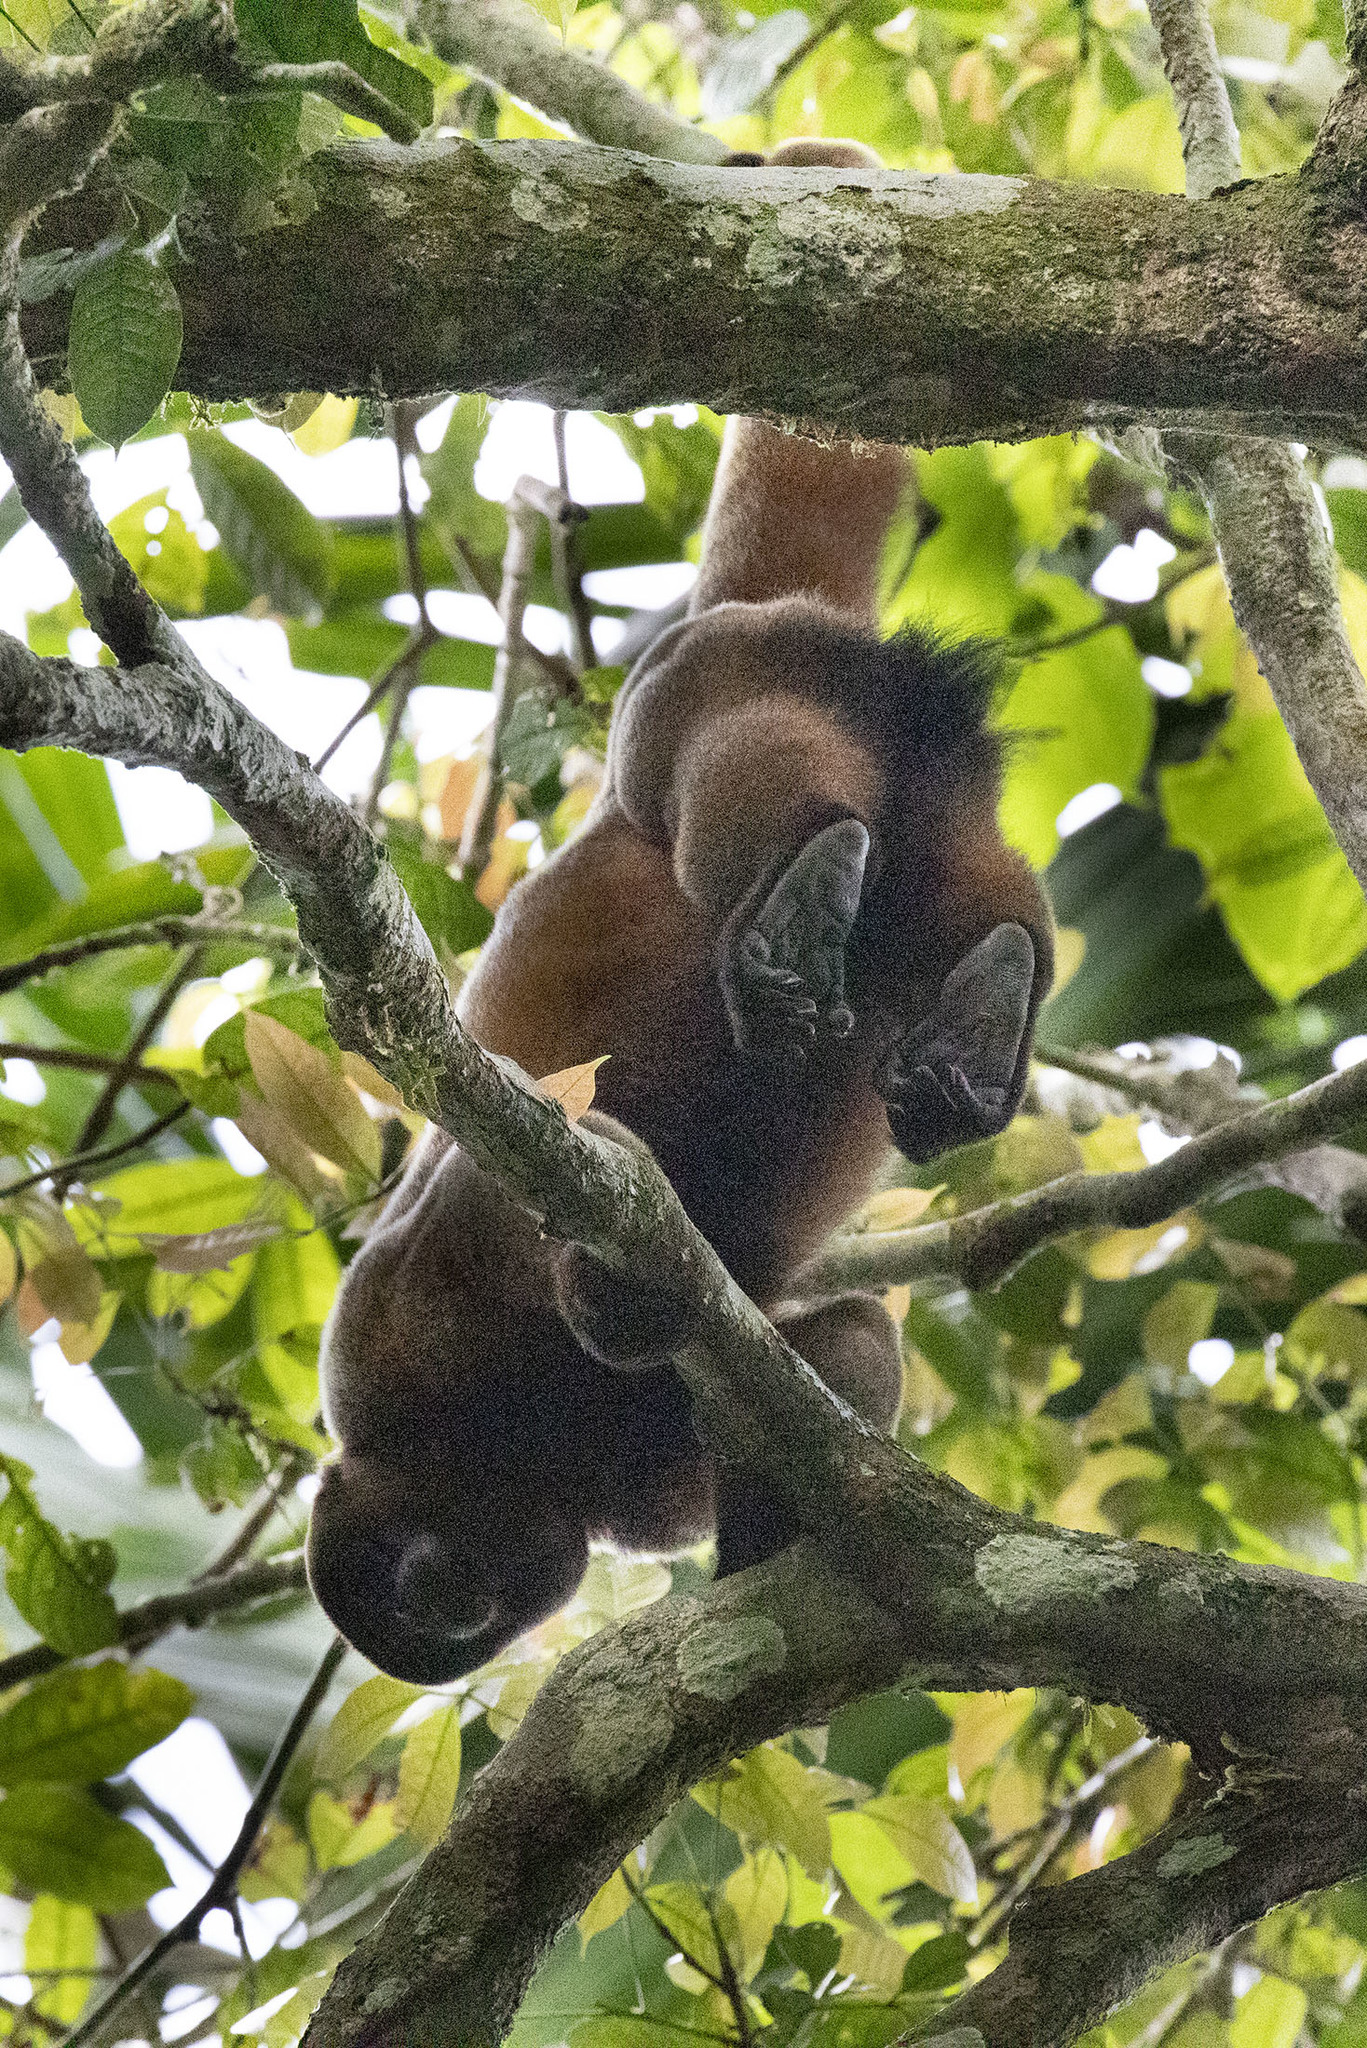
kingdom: Animalia
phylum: Chordata
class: Mammalia
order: Primates
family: Atelidae
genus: Lagothrix
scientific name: Lagothrix lagothricha
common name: Brown woolly monkey
